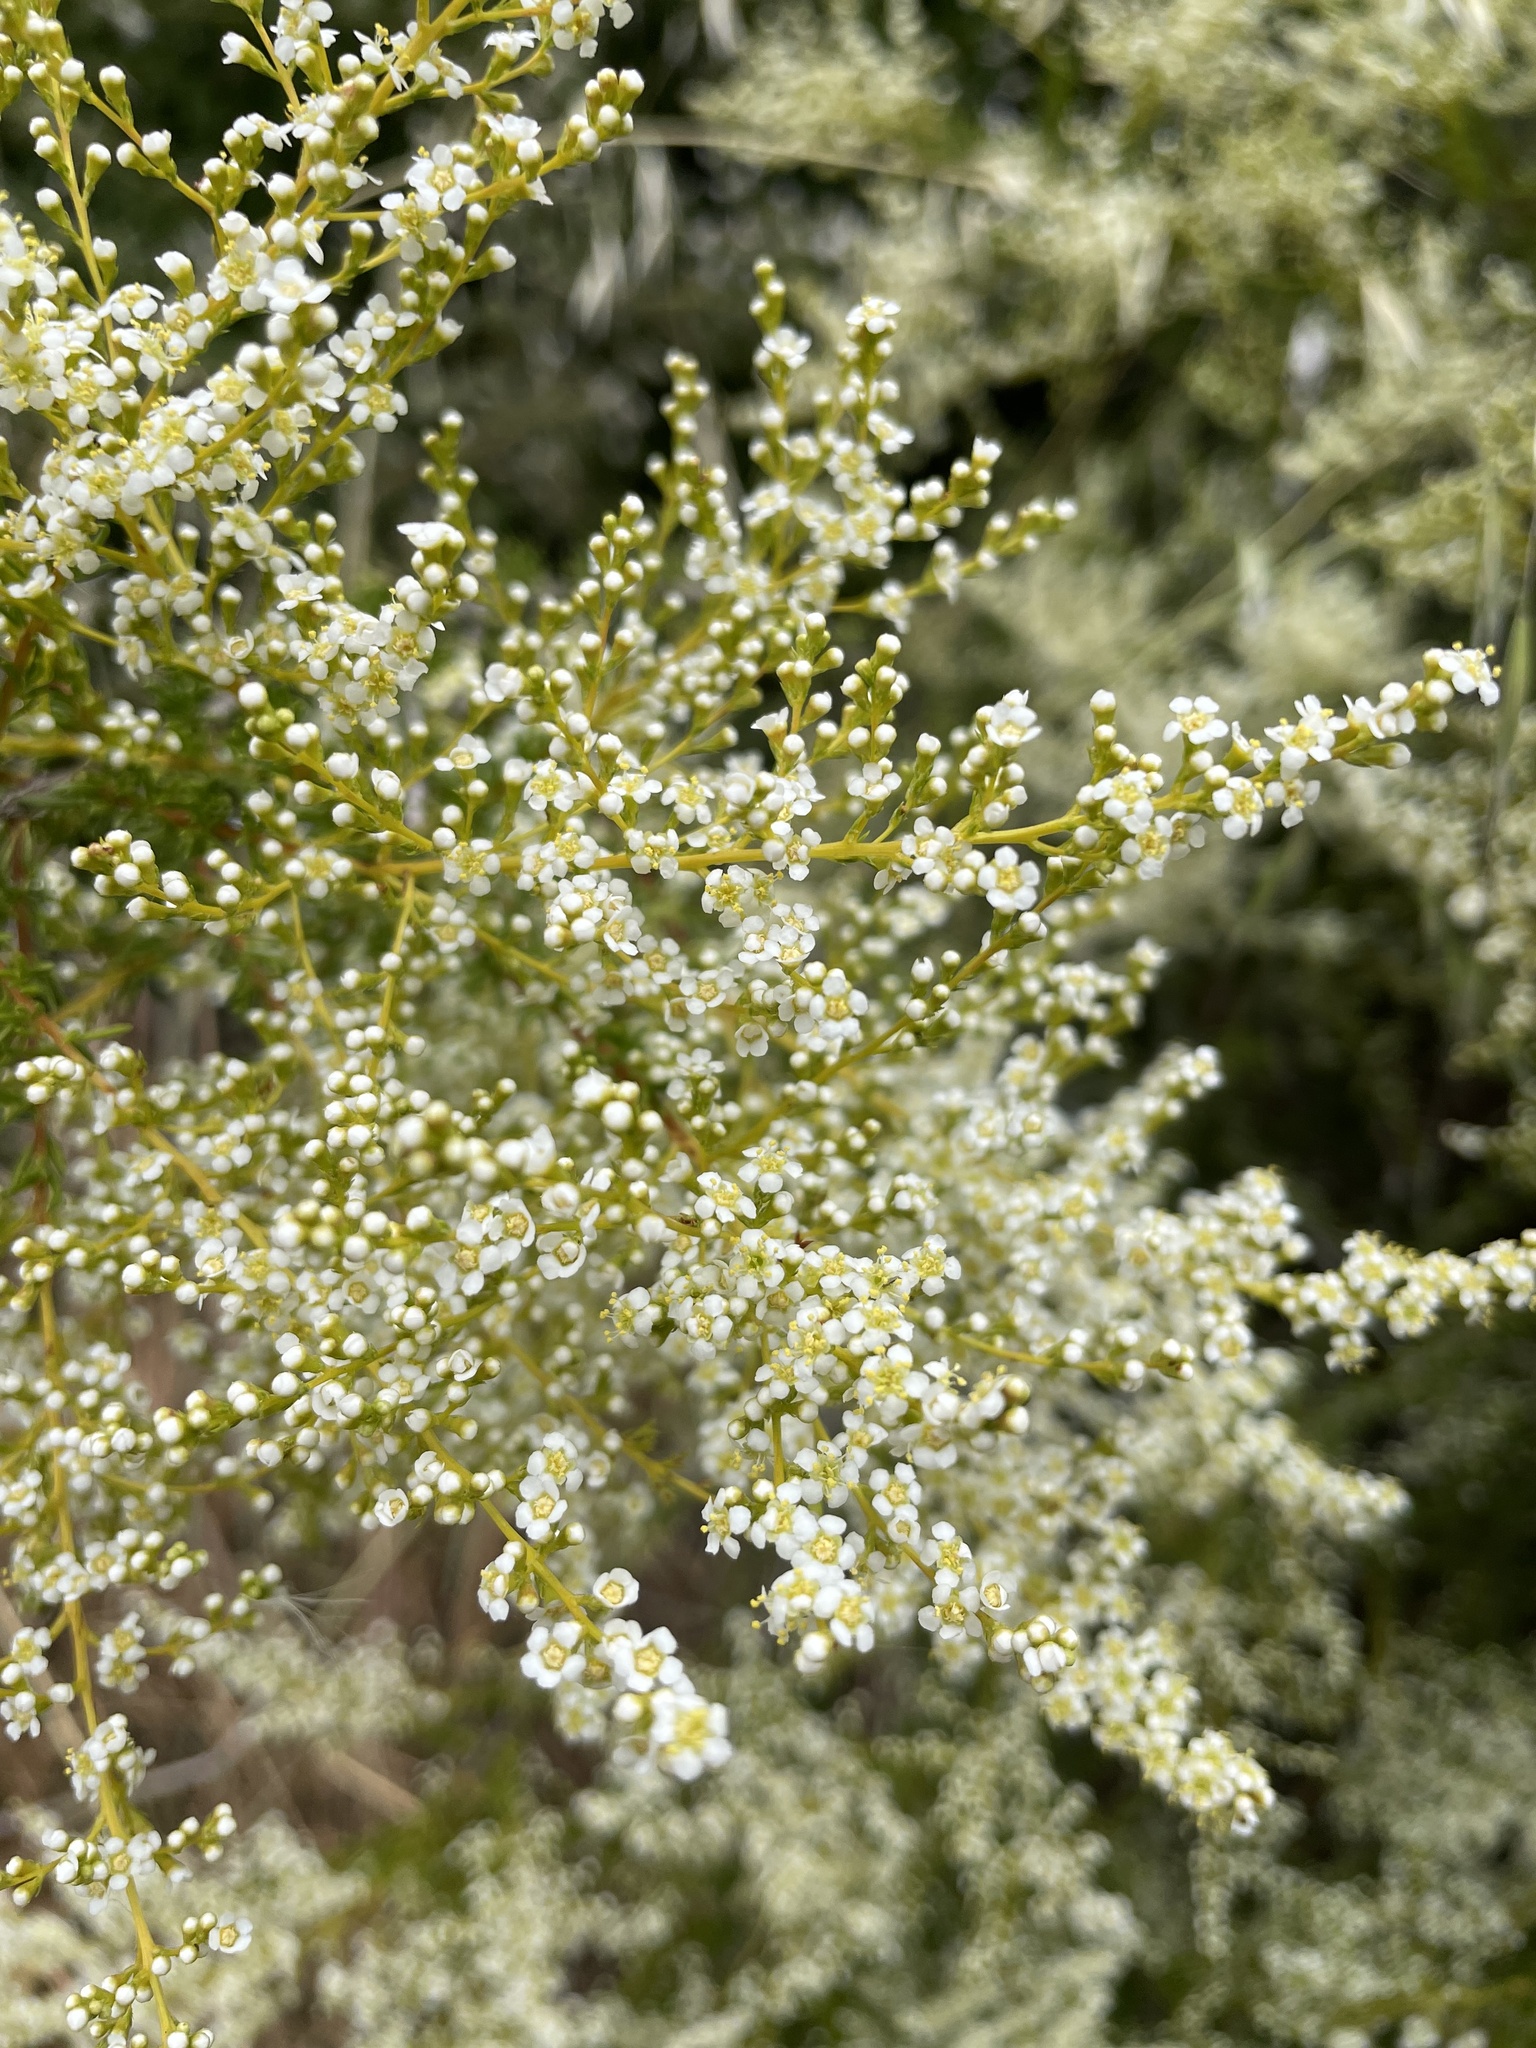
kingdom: Plantae
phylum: Tracheophyta
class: Magnoliopsida
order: Rosales
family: Rosaceae
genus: Adenostoma
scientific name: Adenostoma fasciculatum
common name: Chamise
